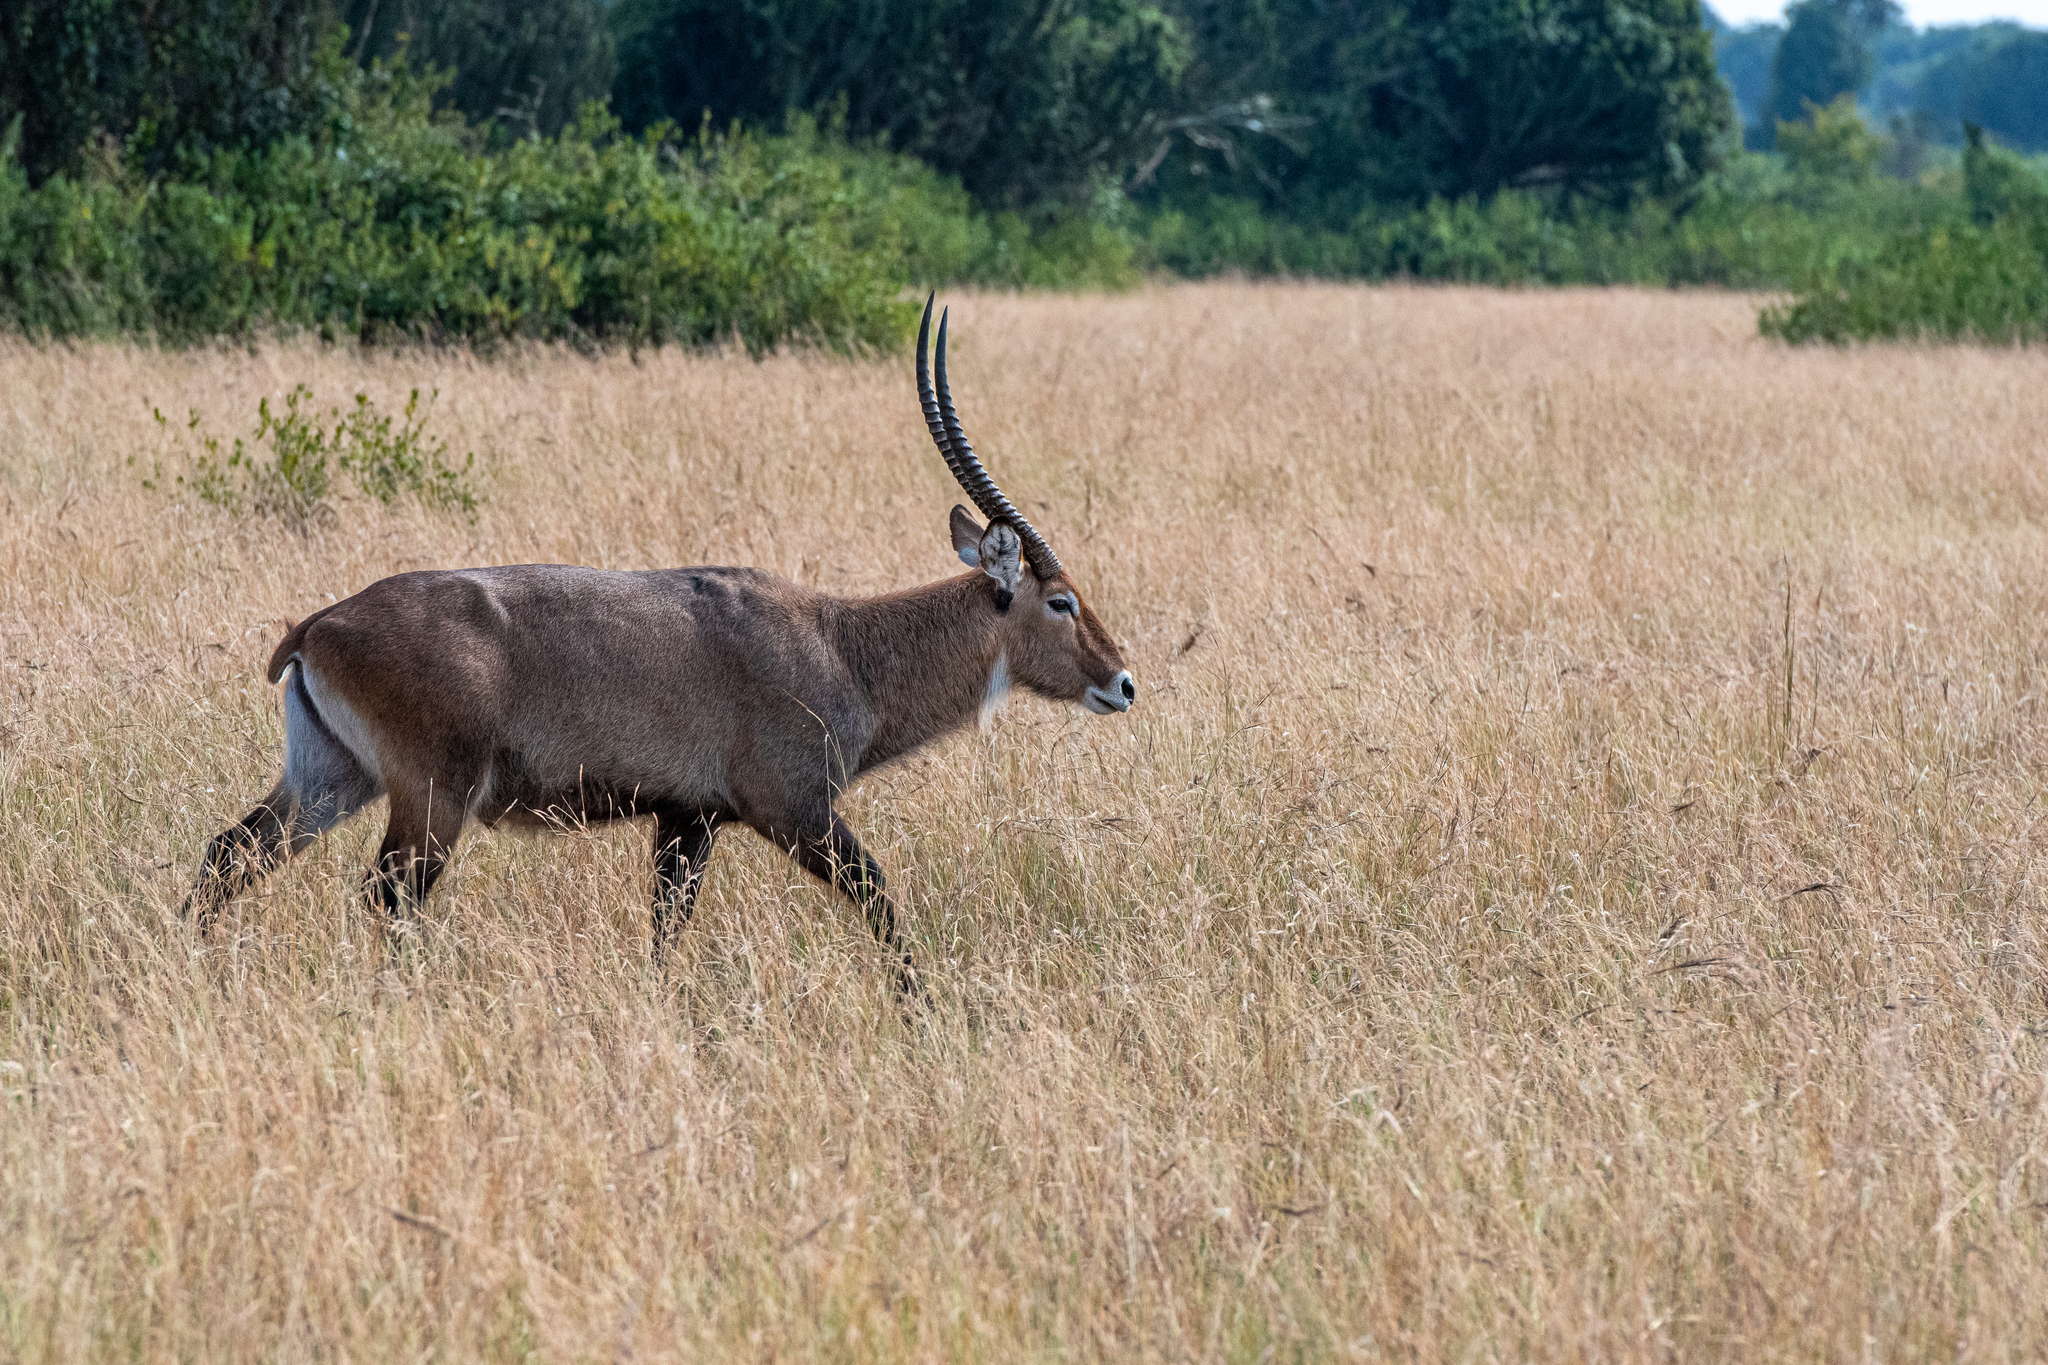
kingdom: Animalia
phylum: Chordata
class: Mammalia
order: Artiodactyla
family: Bovidae
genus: Kobus
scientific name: Kobus ellipsiprymnus
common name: Waterbuck
